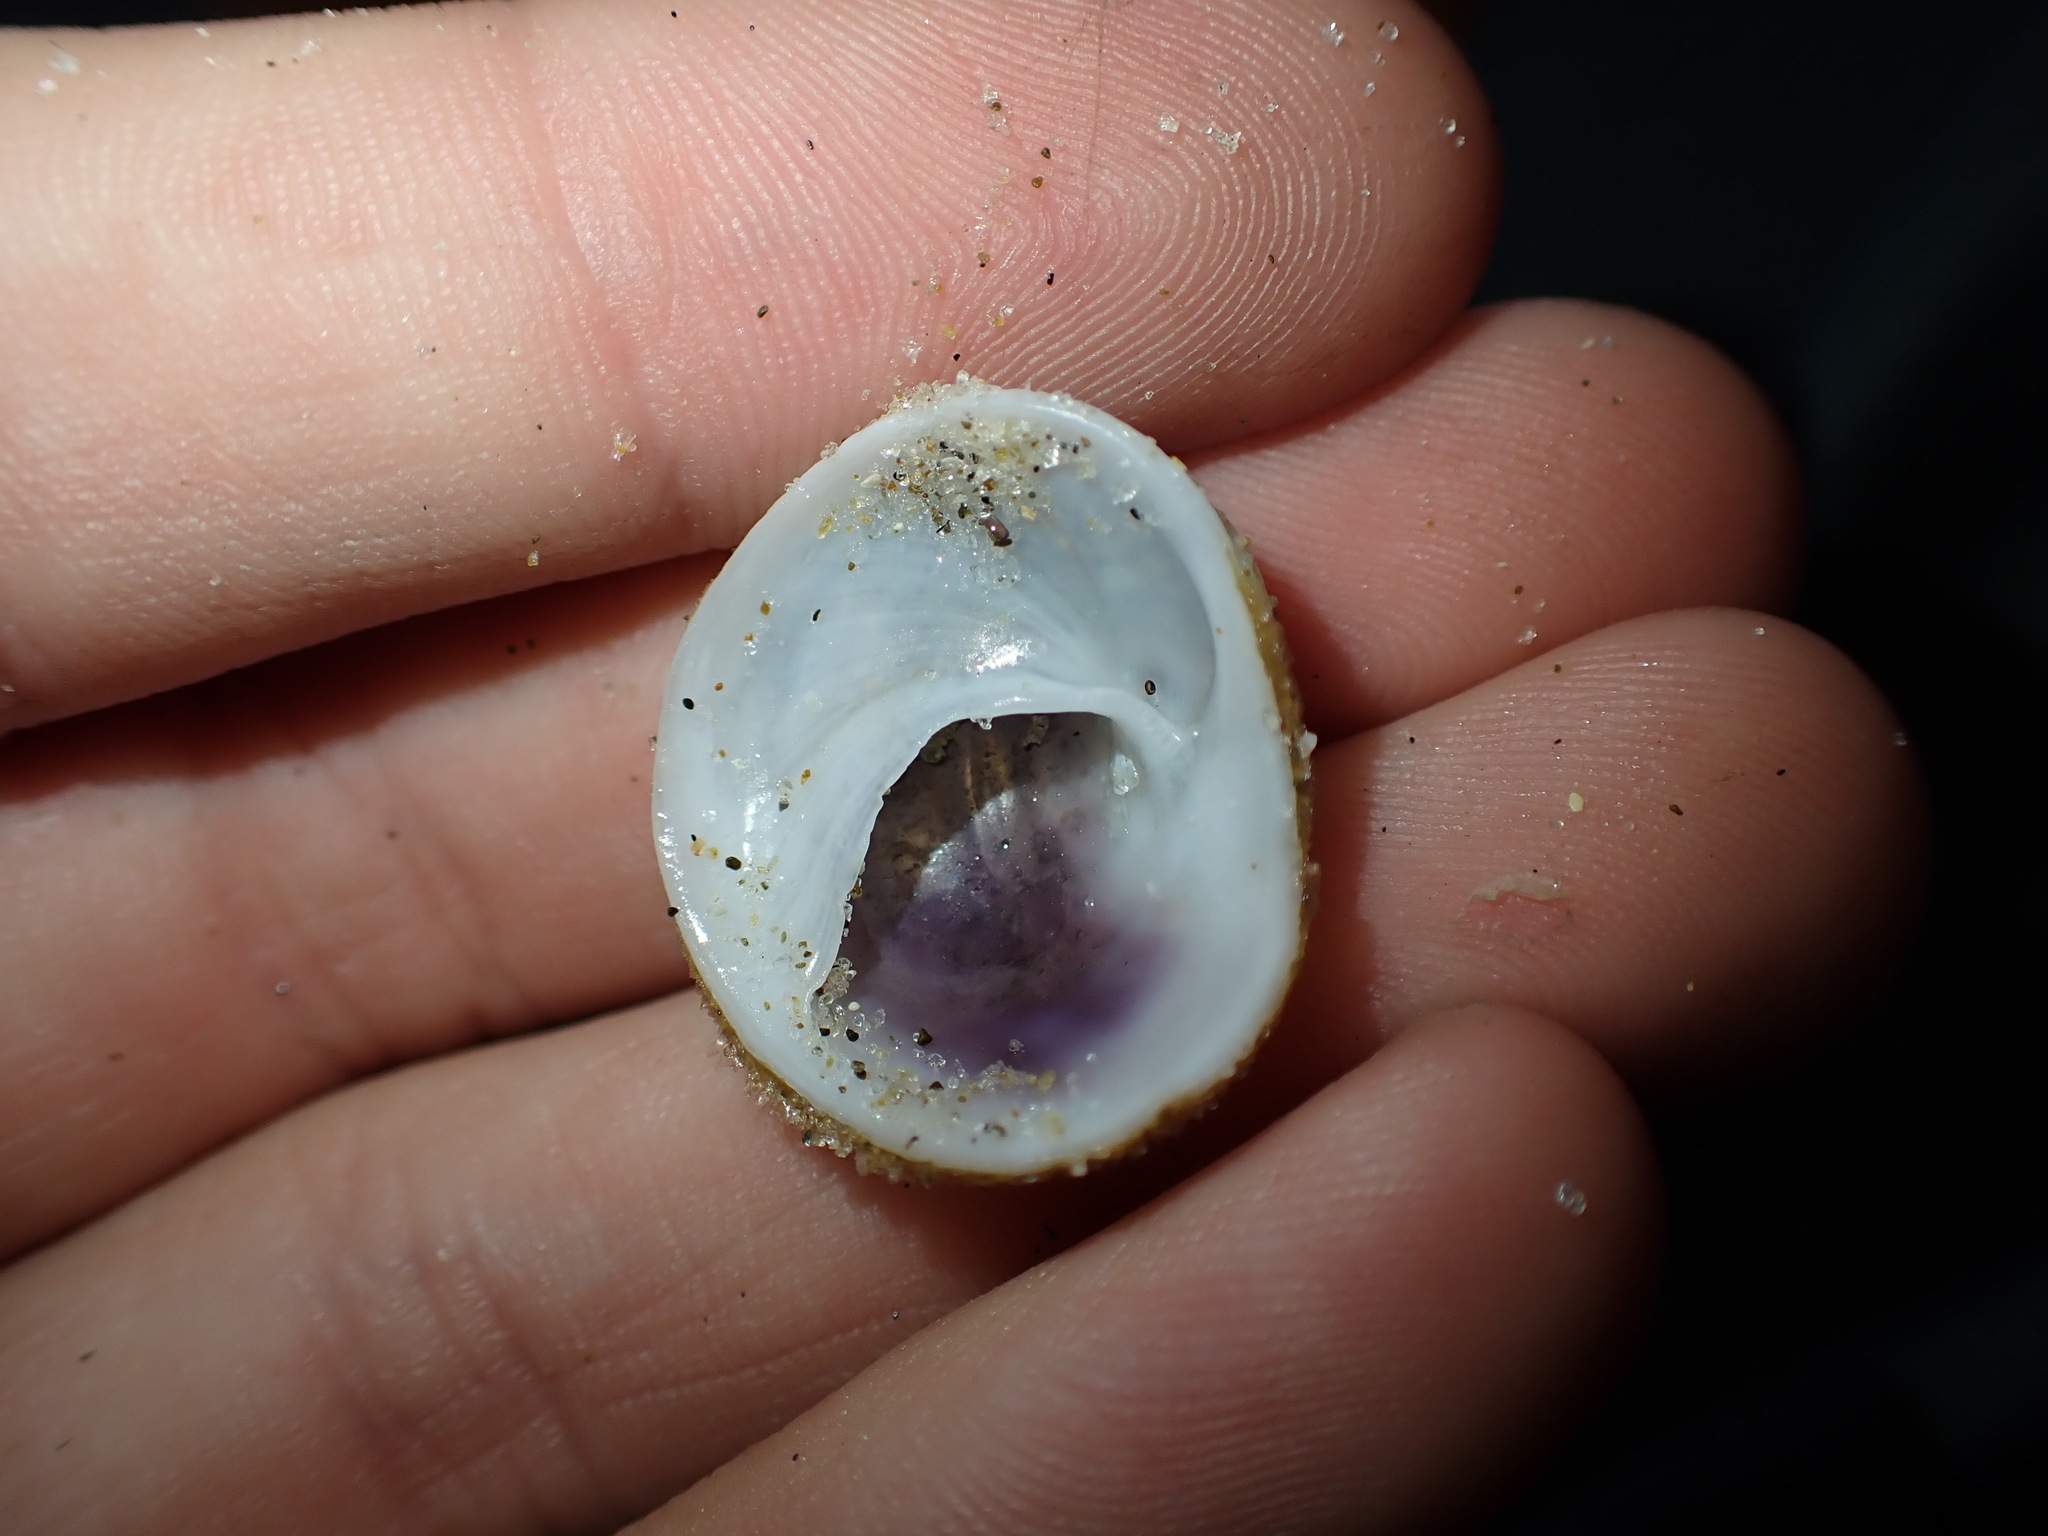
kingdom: Animalia
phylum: Mollusca
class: Gastropoda
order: Littorinimorpha
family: Calyptraeidae
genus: Sigapatella
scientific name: Sigapatella novaezelandiae
